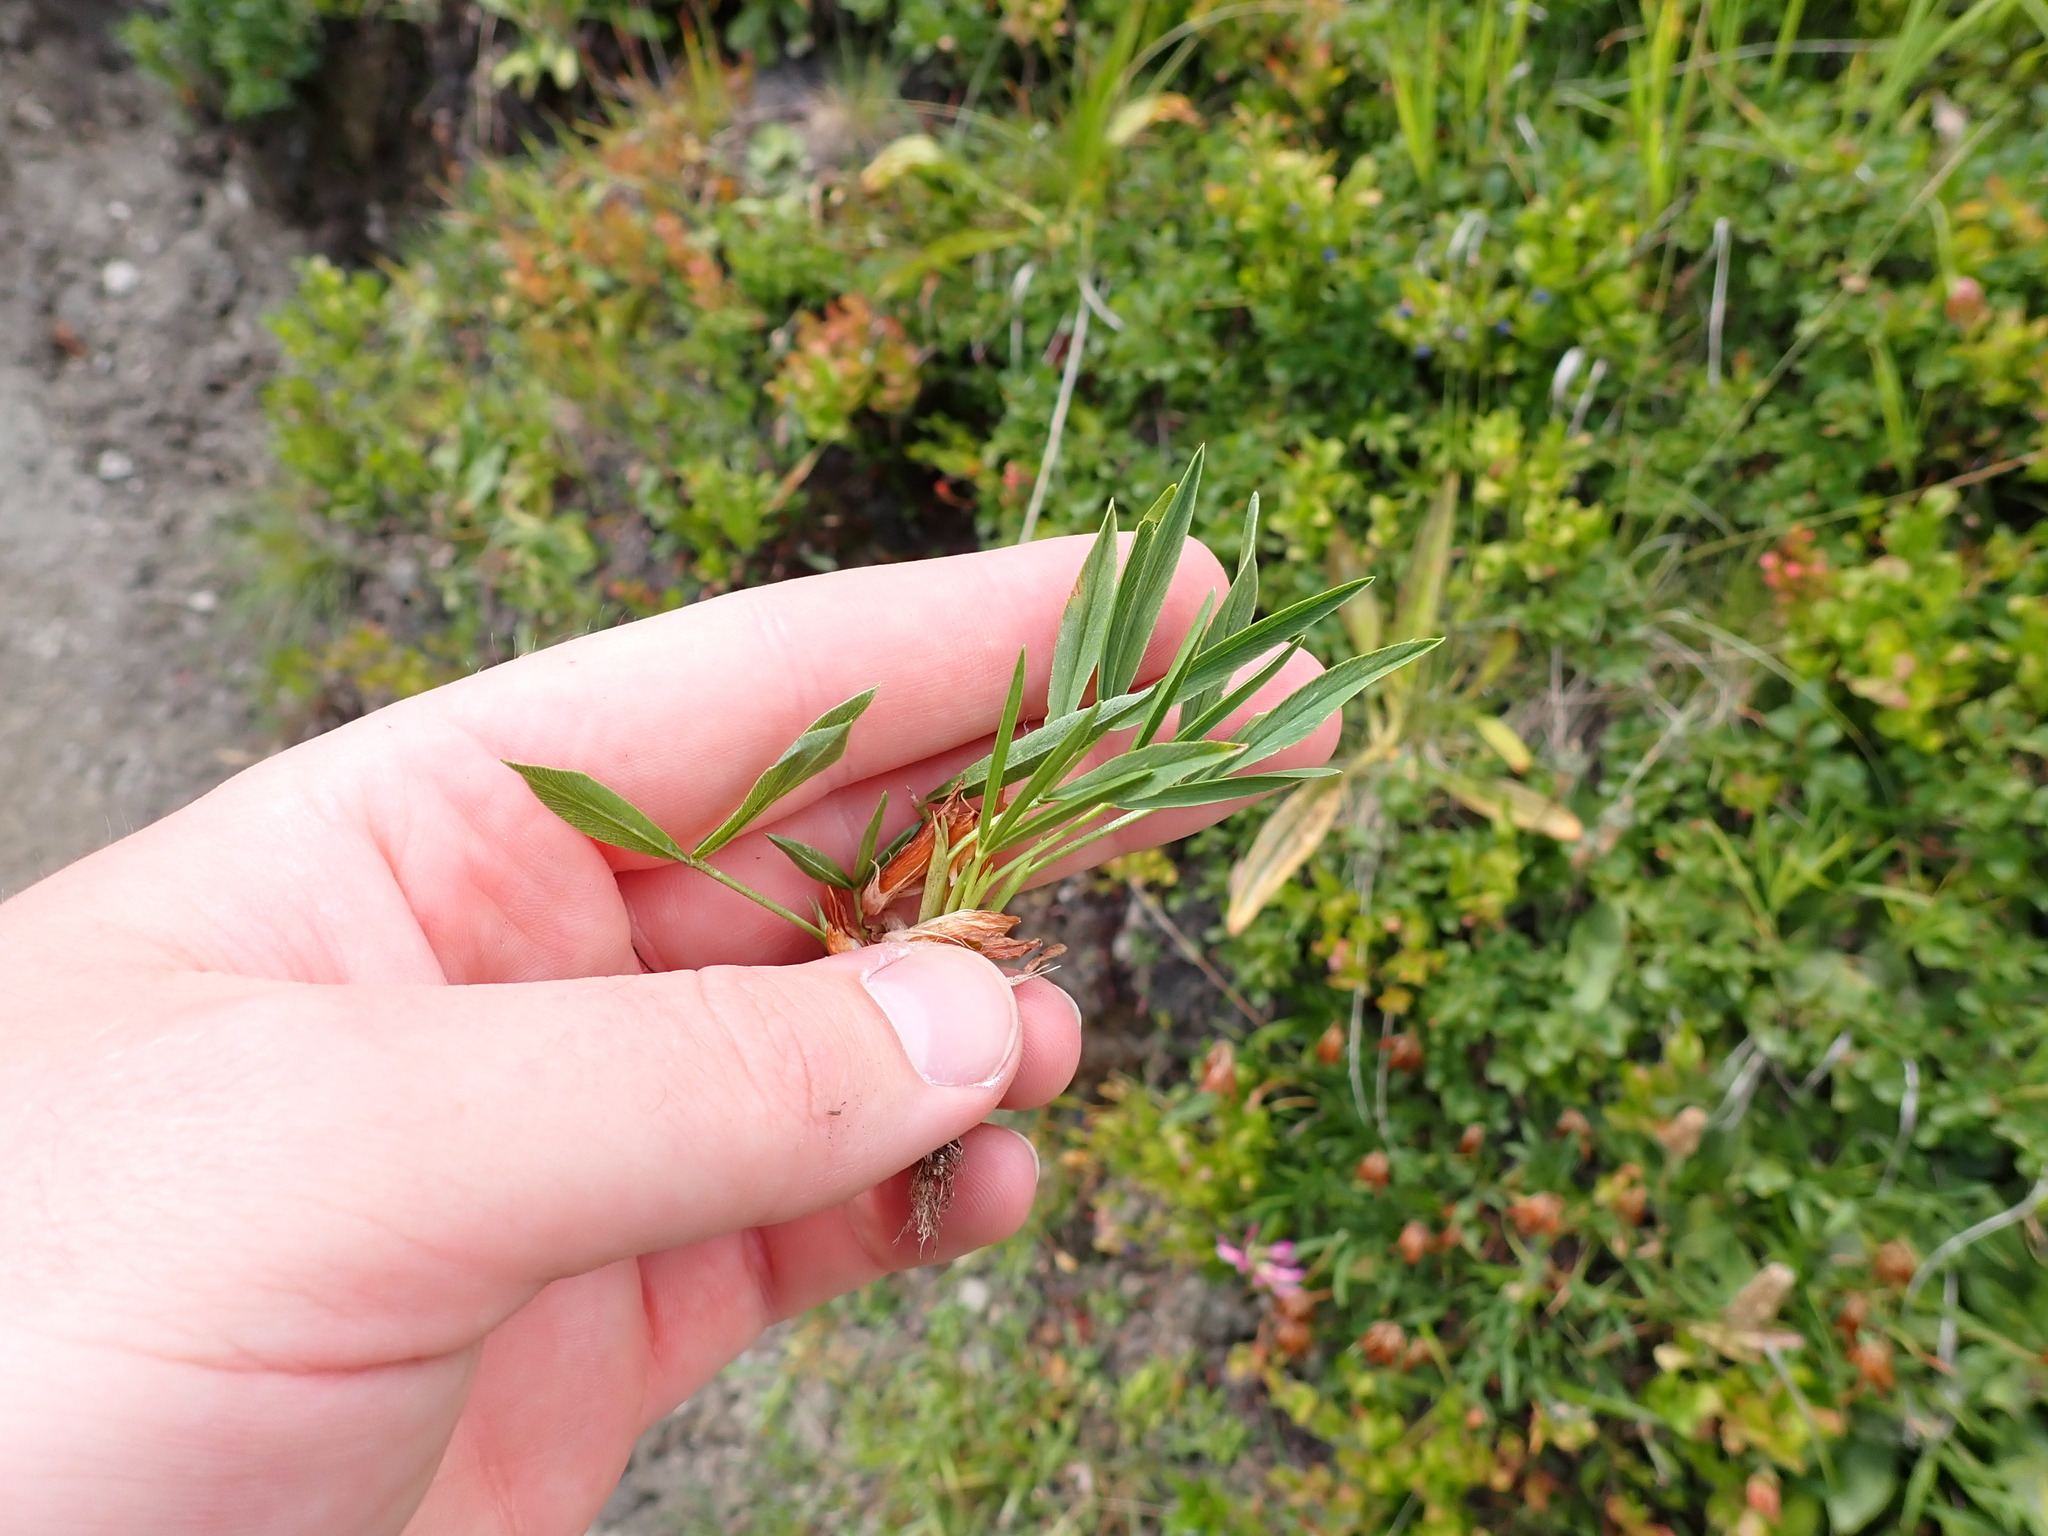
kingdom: Plantae
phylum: Tracheophyta
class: Magnoliopsida
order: Fabales
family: Fabaceae
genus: Trifolium
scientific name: Trifolium alpinum
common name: Alpine clover
